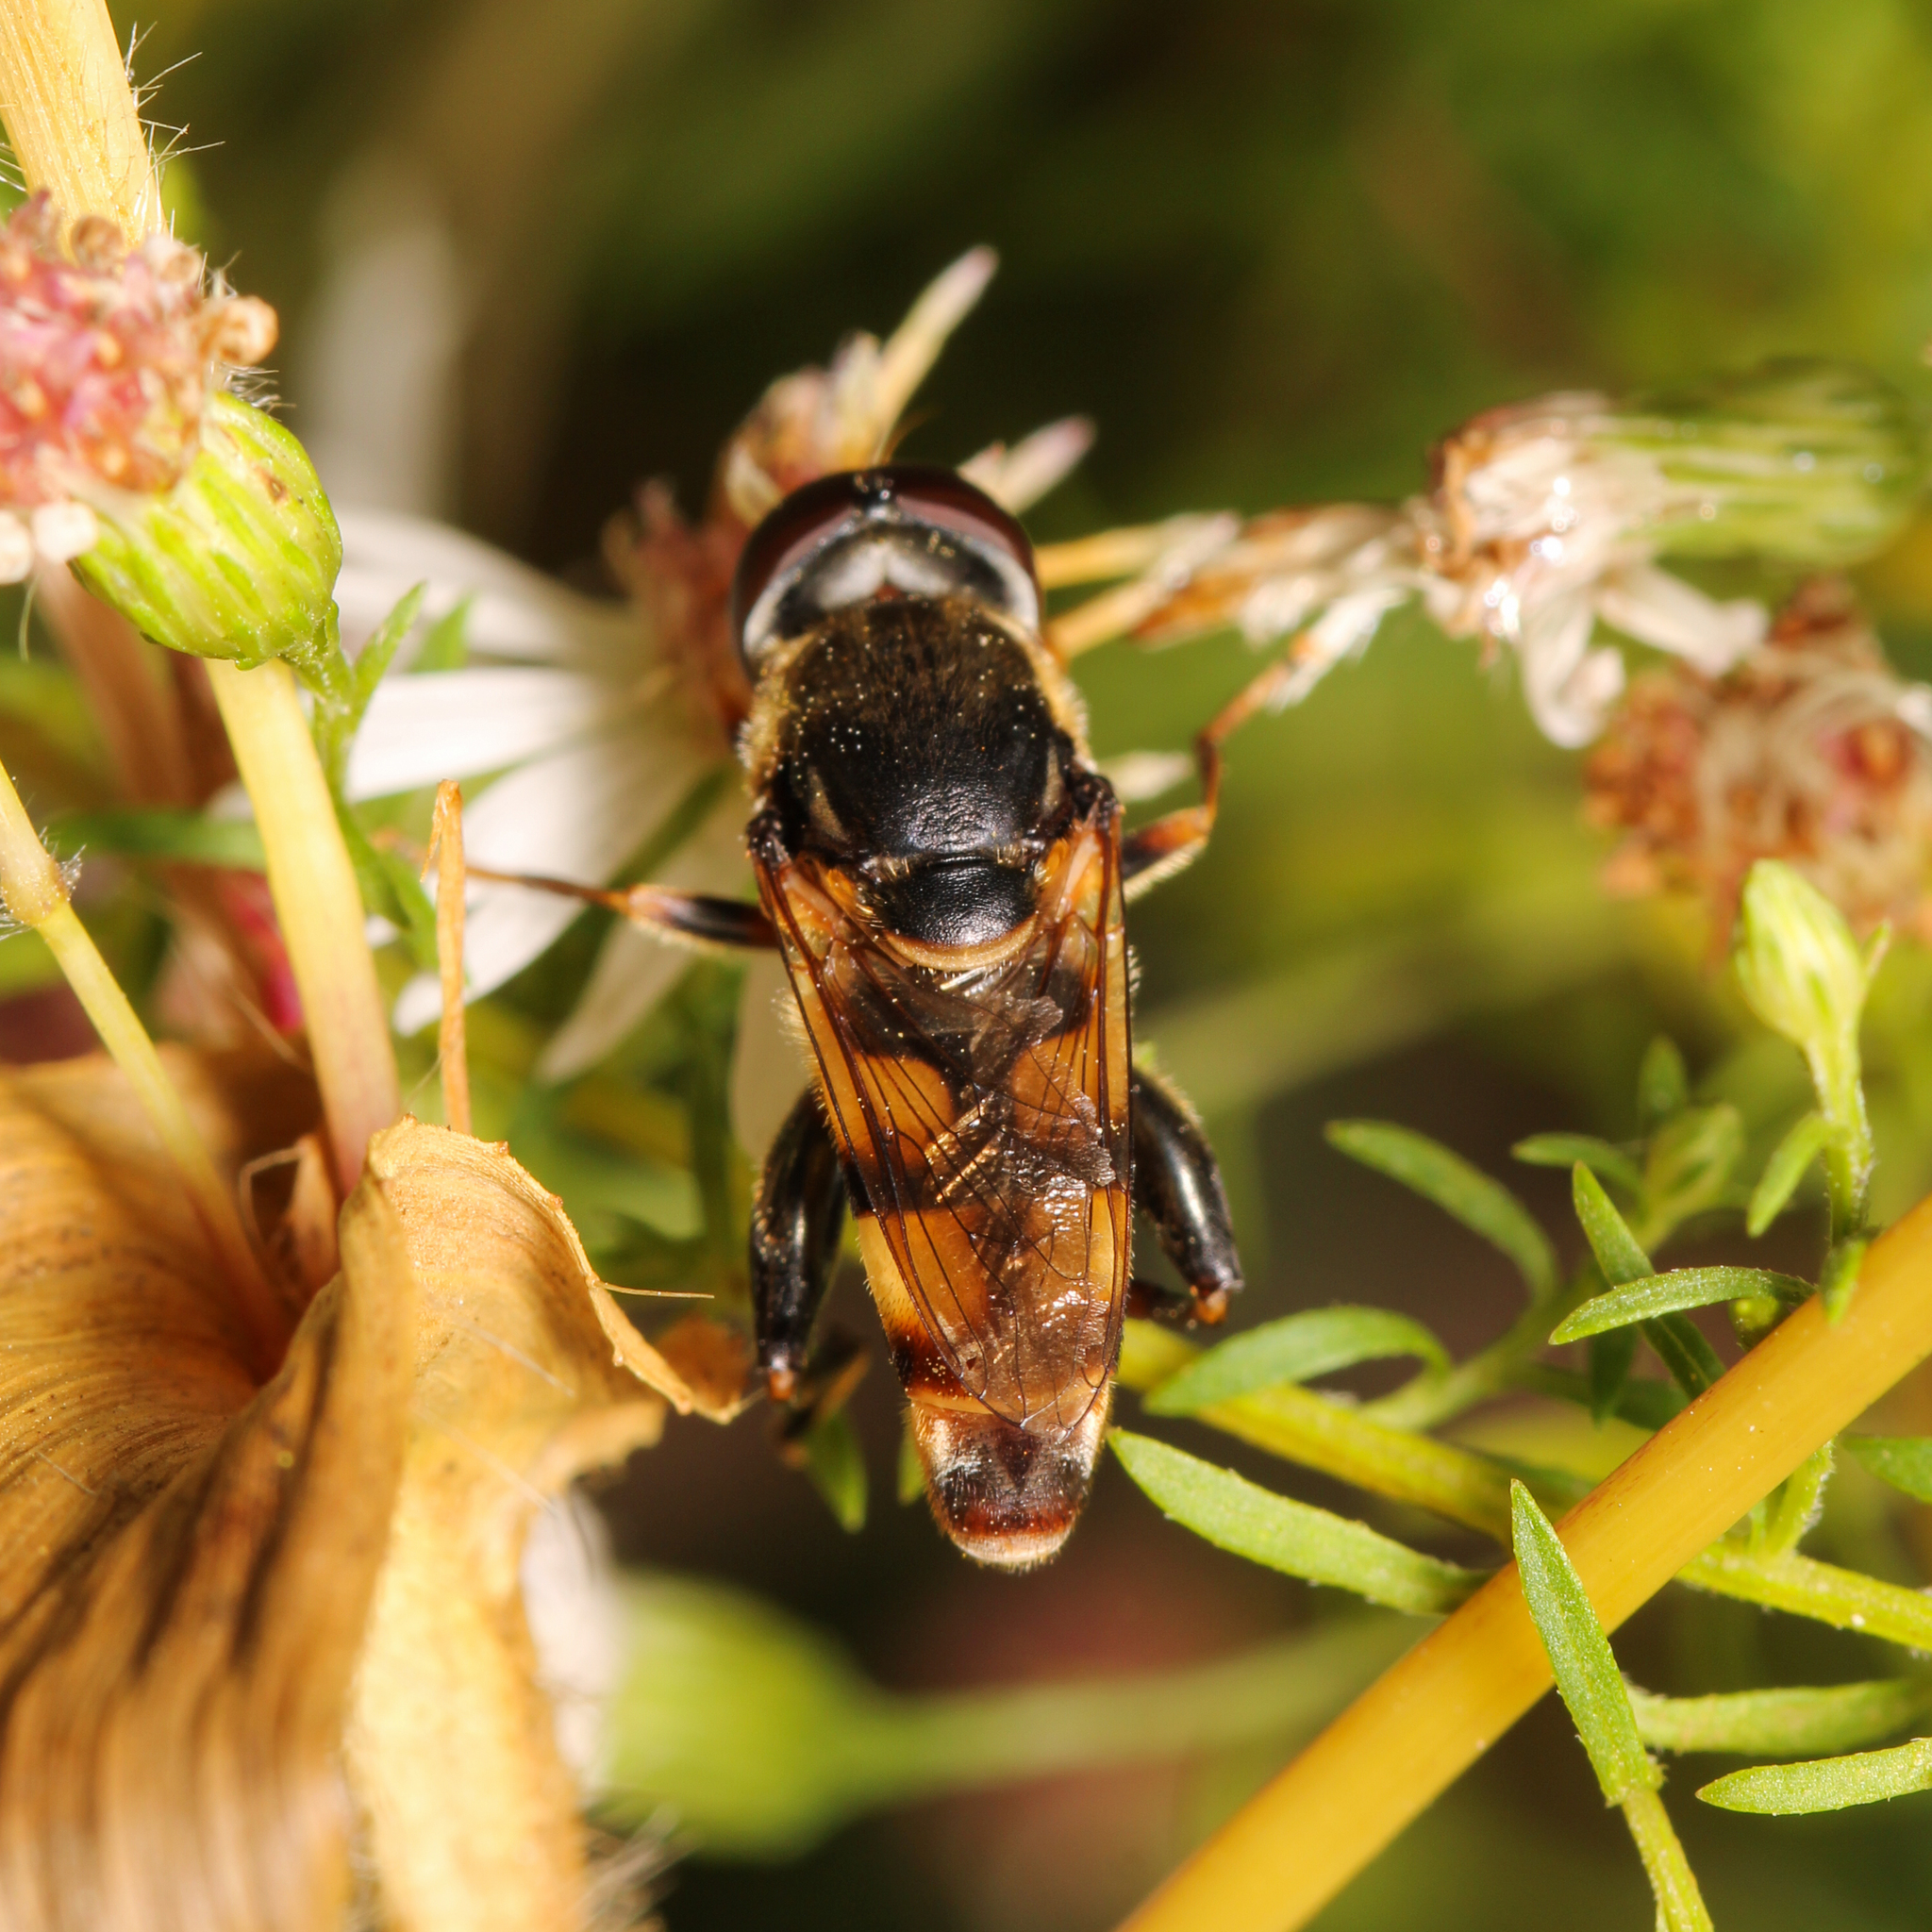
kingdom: Animalia
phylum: Arthropoda
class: Insecta
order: Diptera
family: Syrphidae
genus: Tropidia
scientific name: Tropidia albistylum
